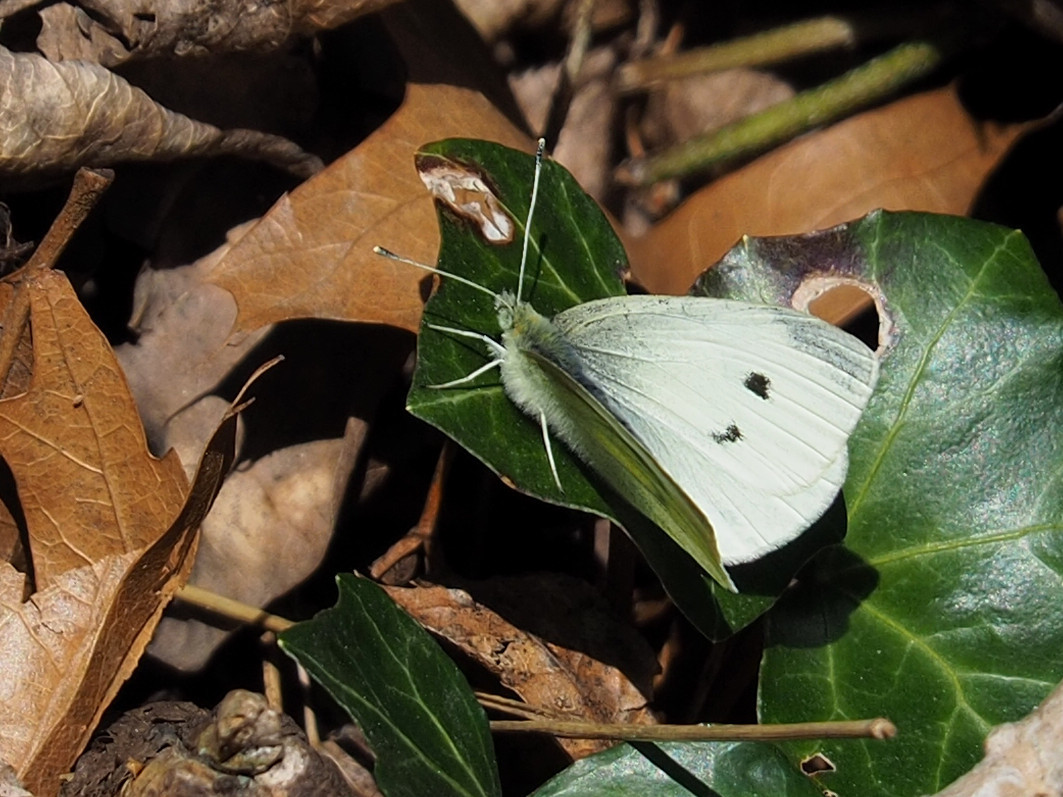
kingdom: Animalia
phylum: Arthropoda
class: Insecta
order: Lepidoptera
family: Pieridae
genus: Pieris
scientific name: Pieris rapae
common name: Small white
